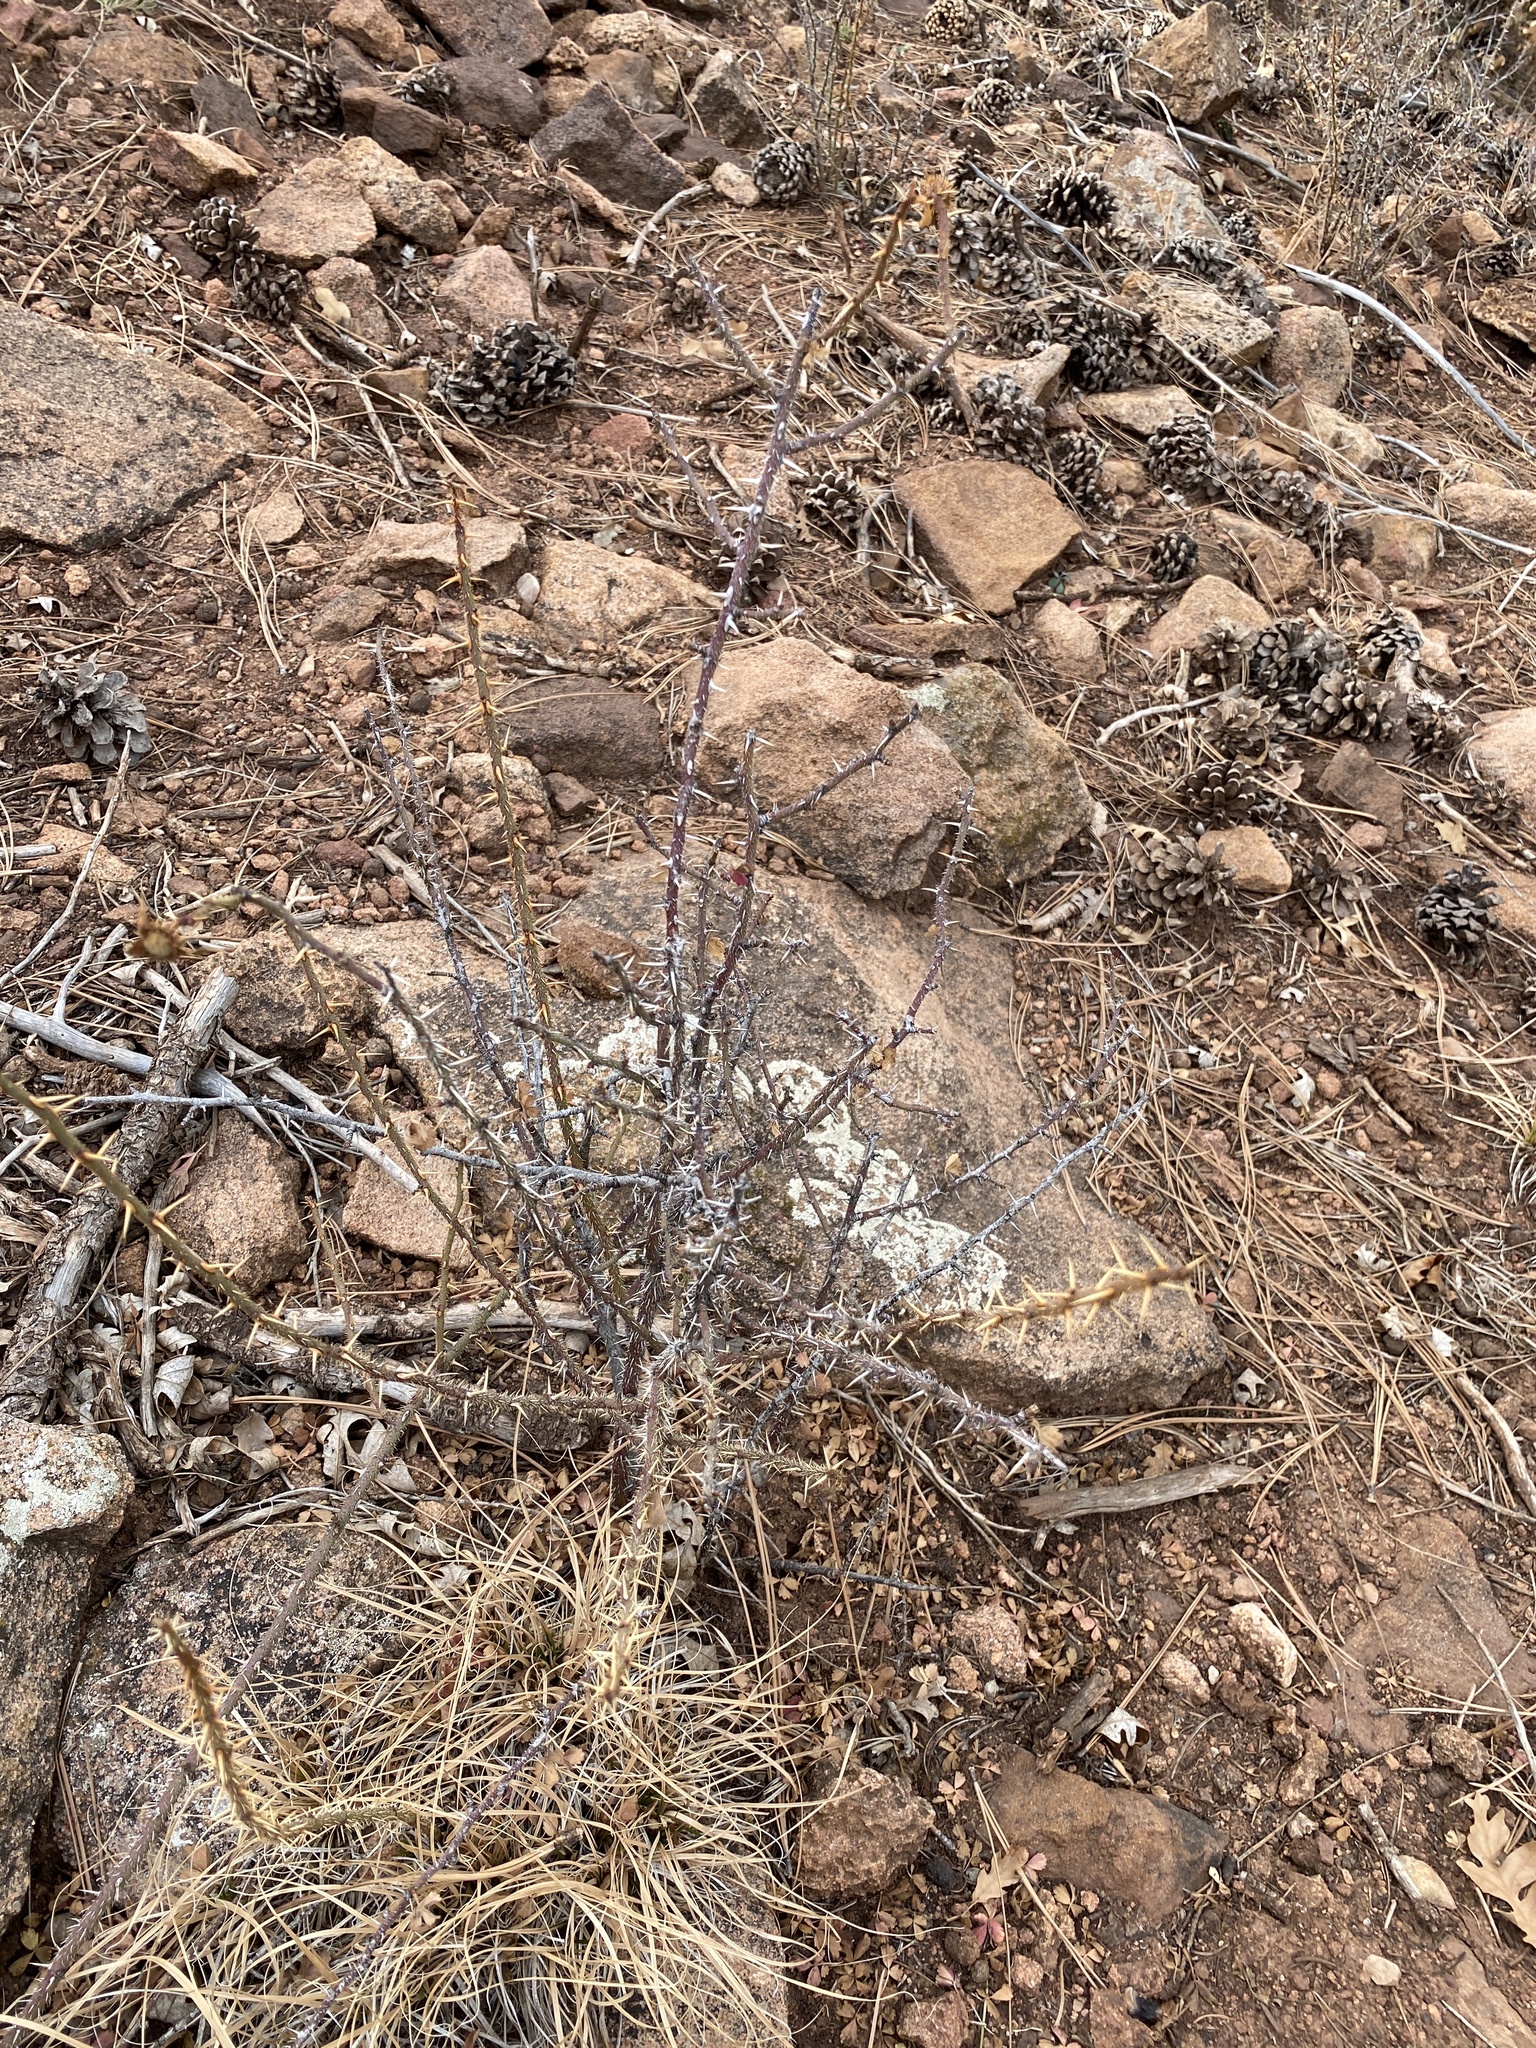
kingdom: Plantae
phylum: Tracheophyta
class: Magnoliopsida
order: Rosales
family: Rosaceae
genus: Rosa
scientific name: Rosa woodsii
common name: Woods's rose
